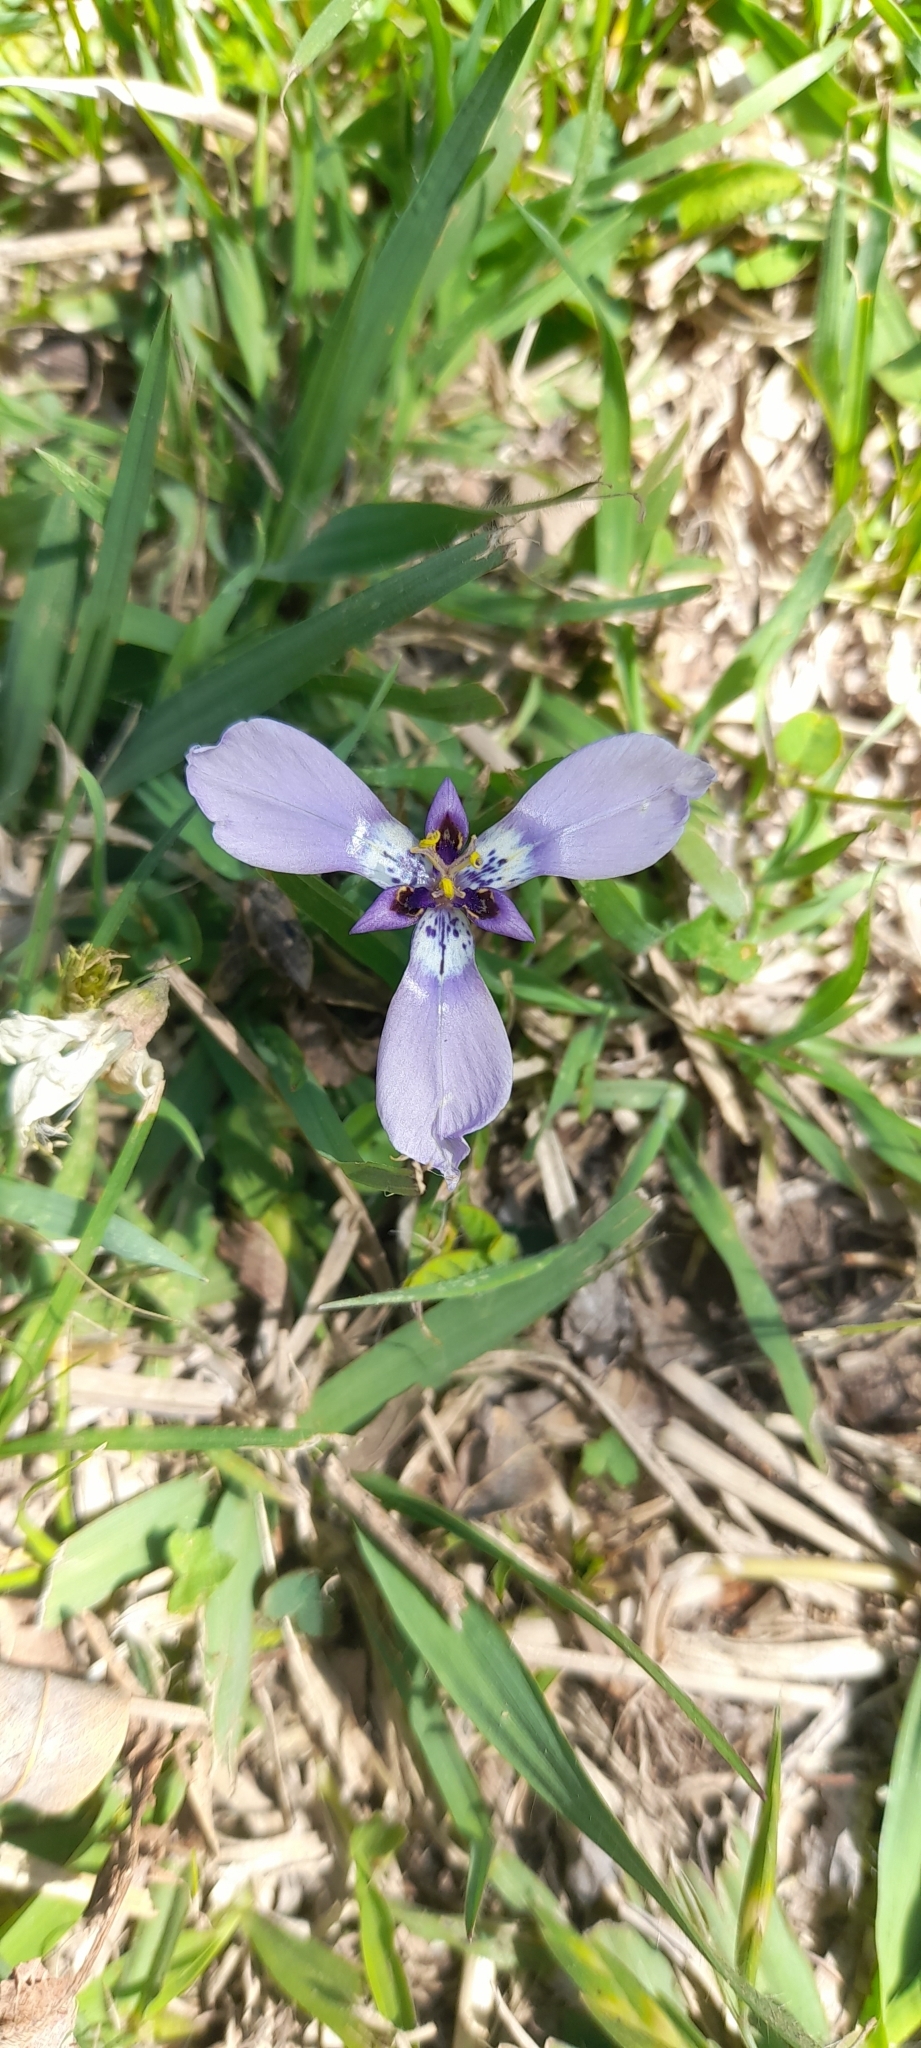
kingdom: Plantae
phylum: Tracheophyta
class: Liliopsida
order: Asparagales
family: Iridaceae
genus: Herbertia
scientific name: Herbertia lahue
